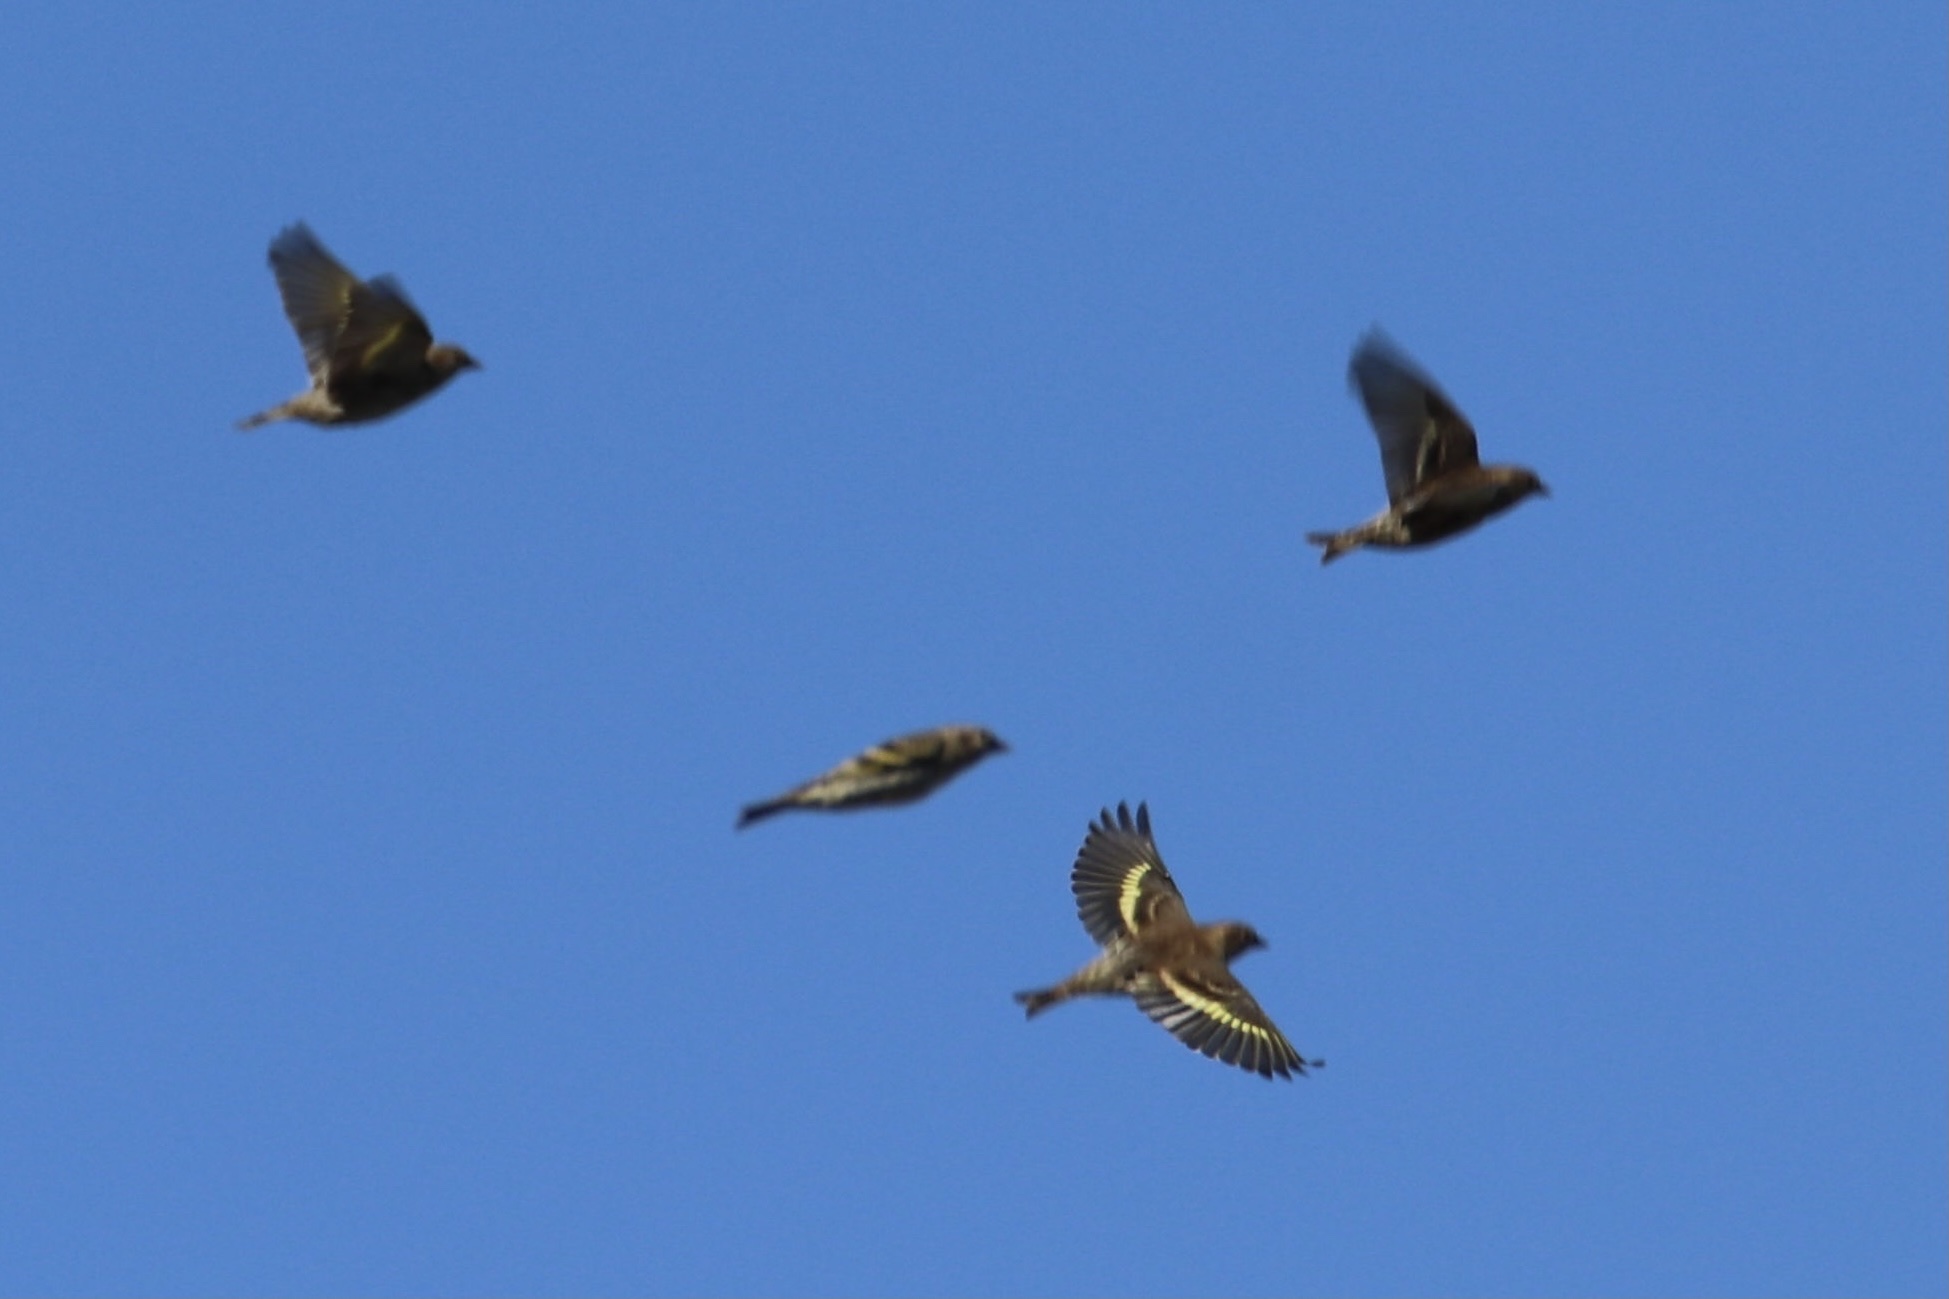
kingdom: Animalia
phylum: Chordata
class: Aves
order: Passeriformes
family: Fringillidae
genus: Spinus
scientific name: Spinus pinus
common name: Pine siskin
